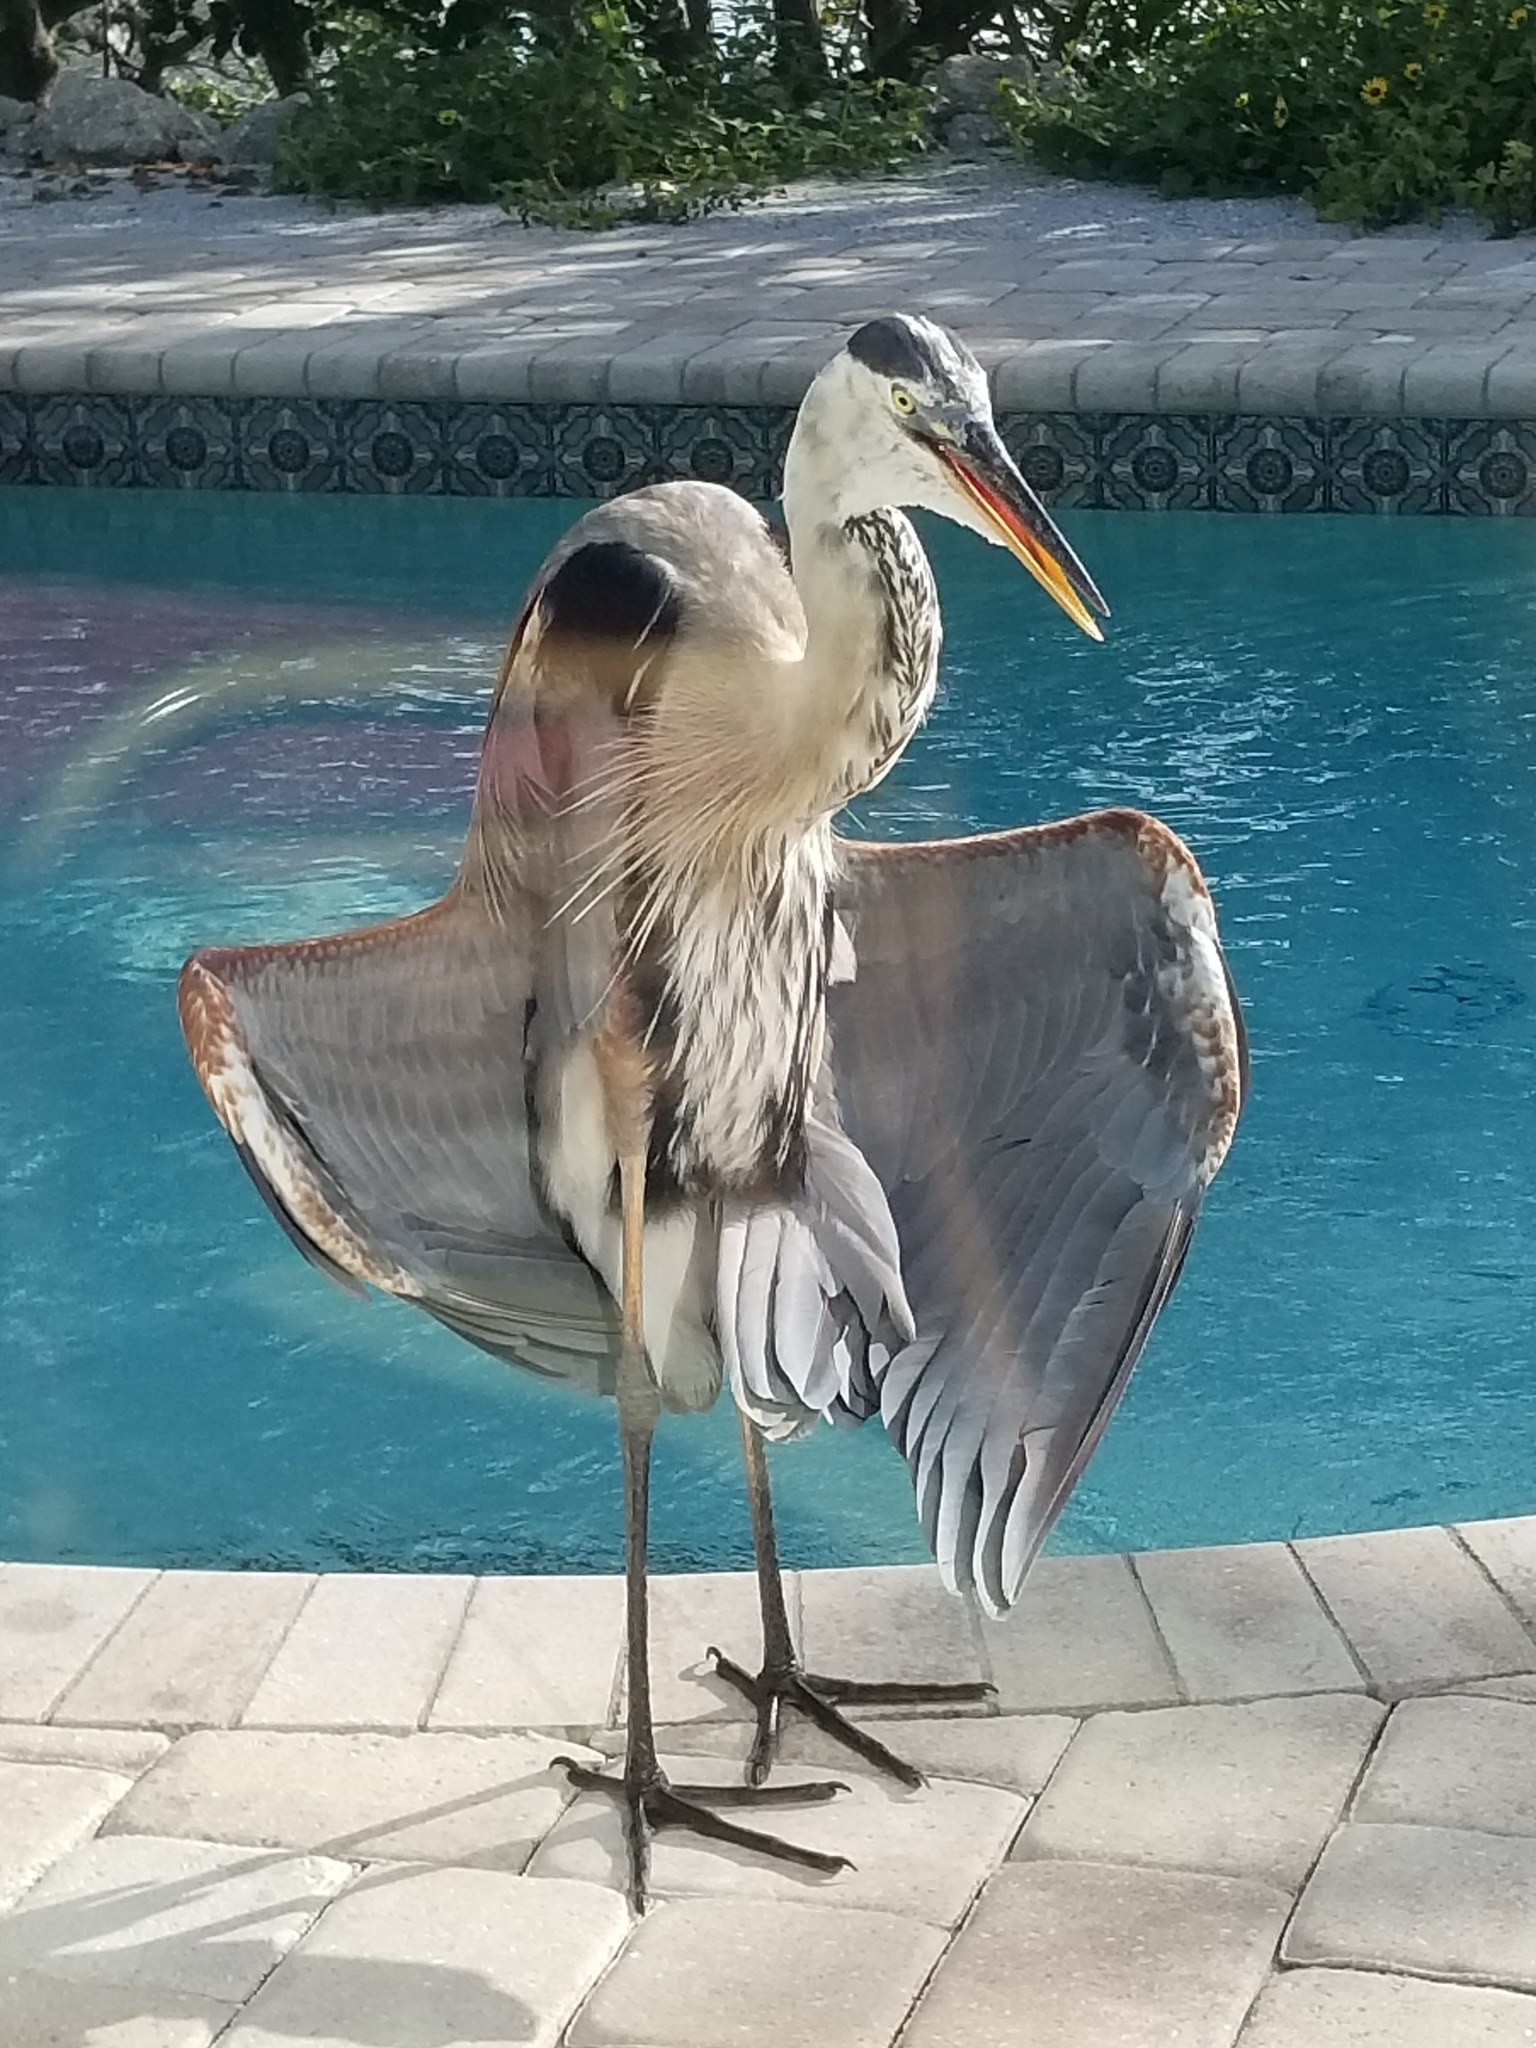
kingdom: Animalia
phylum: Chordata
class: Aves
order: Pelecaniformes
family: Ardeidae
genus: Ardea
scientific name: Ardea herodias
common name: Great blue heron
